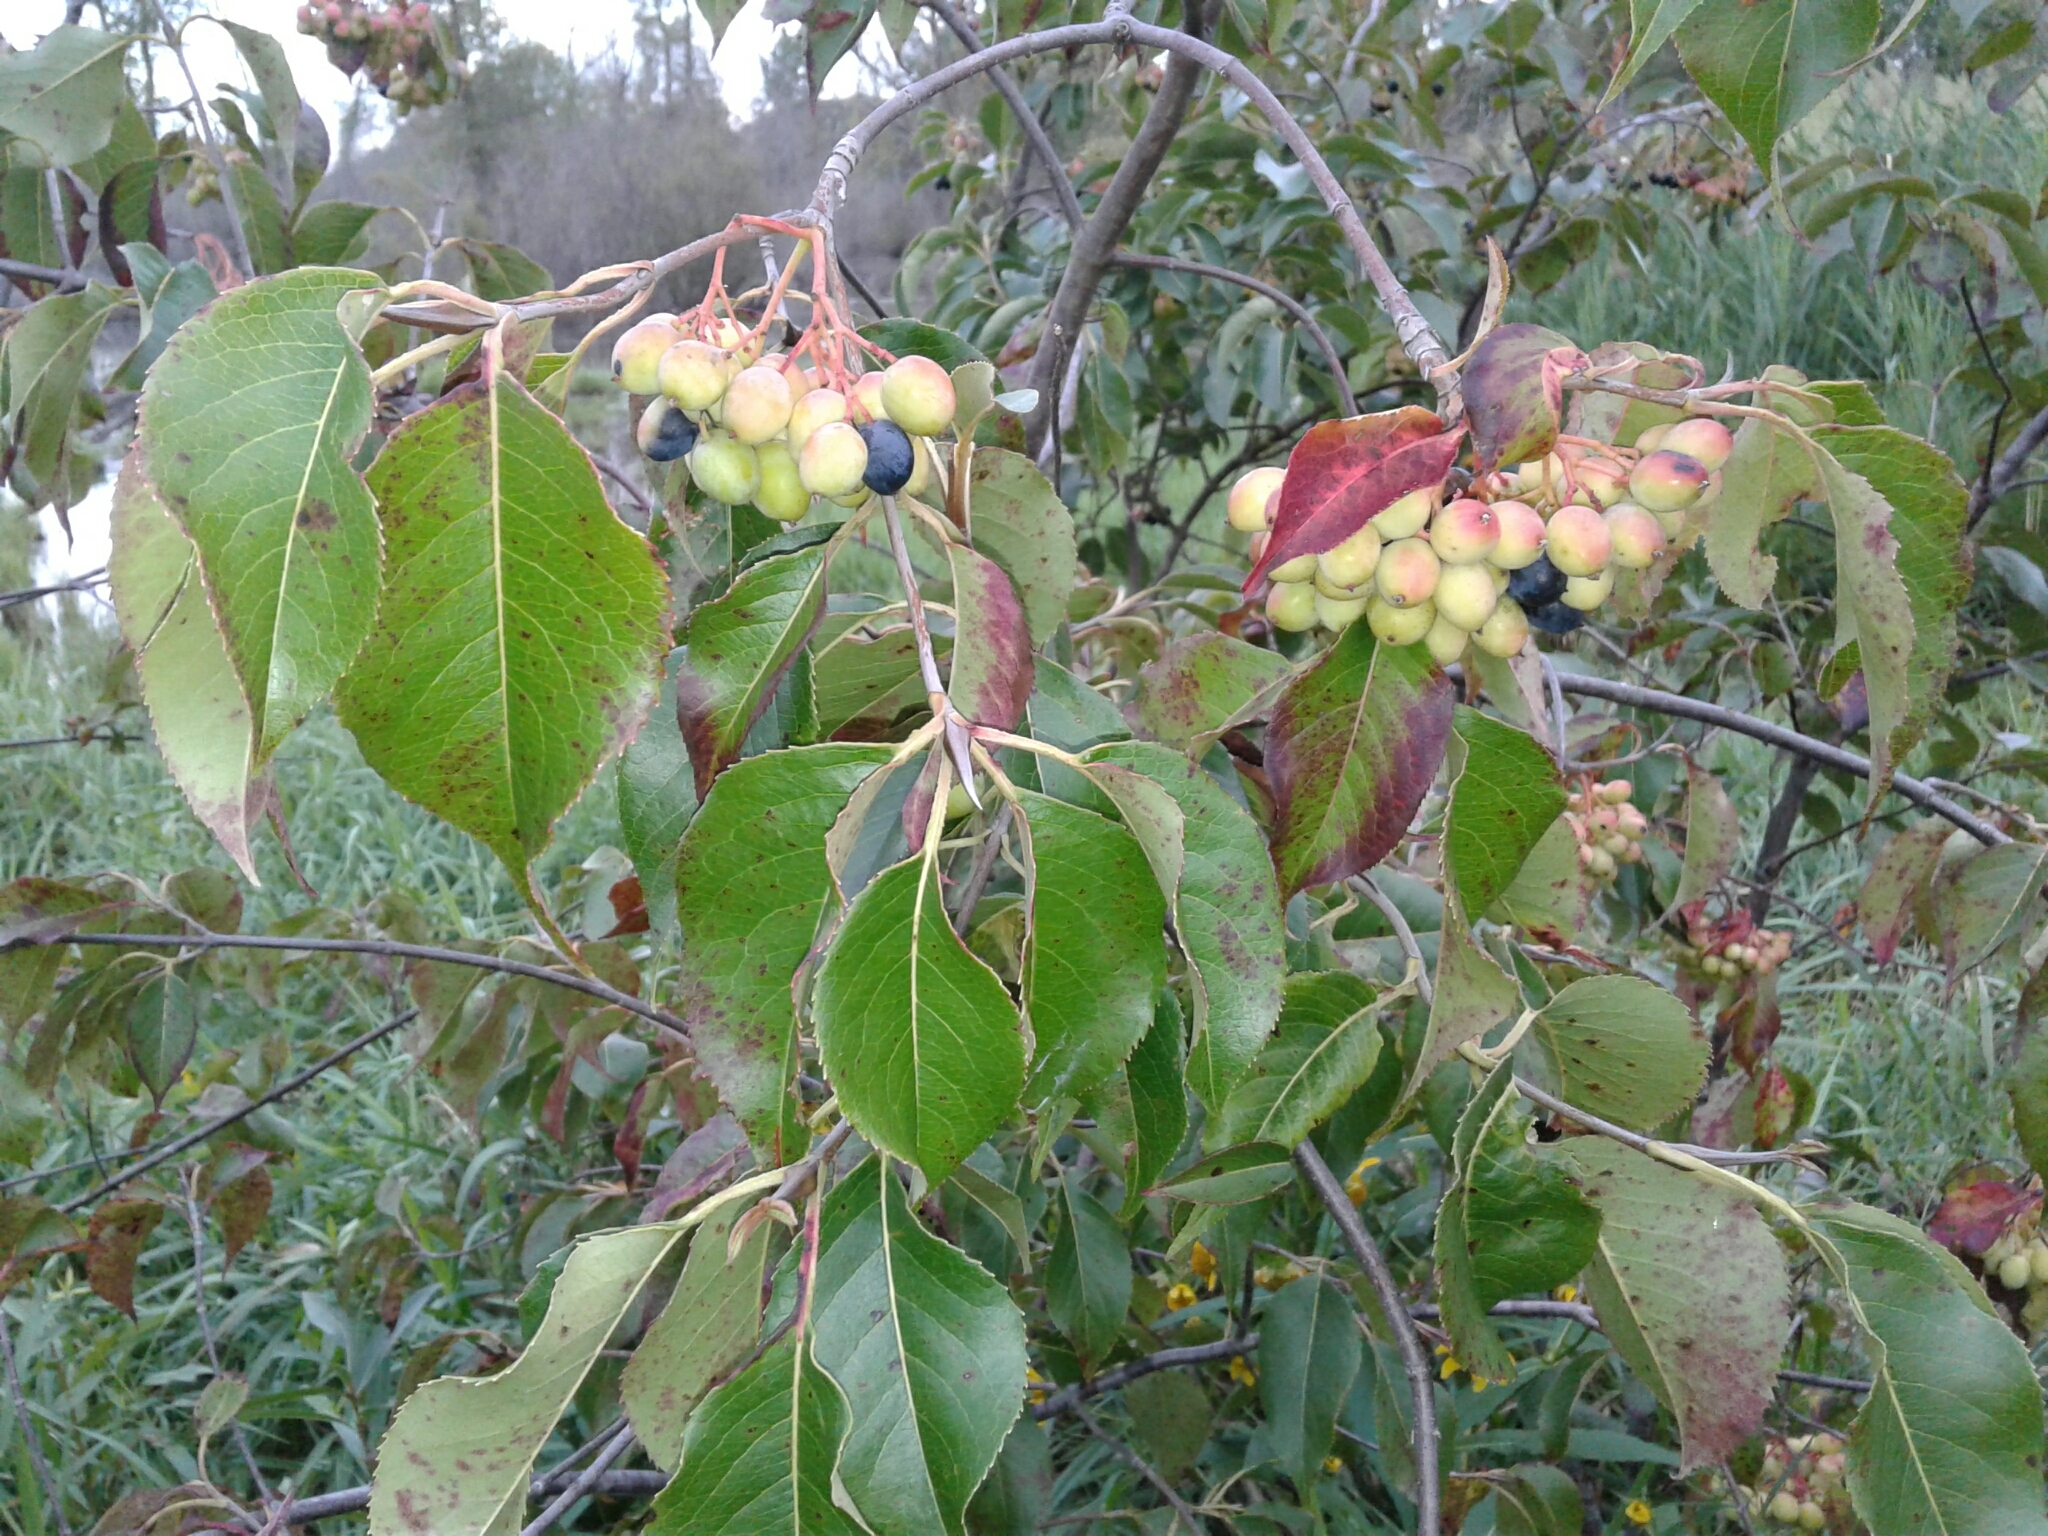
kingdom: Plantae
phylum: Tracheophyta
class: Magnoliopsida
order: Dipsacales
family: Viburnaceae
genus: Viburnum
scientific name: Viburnum lentago
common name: Black haw
